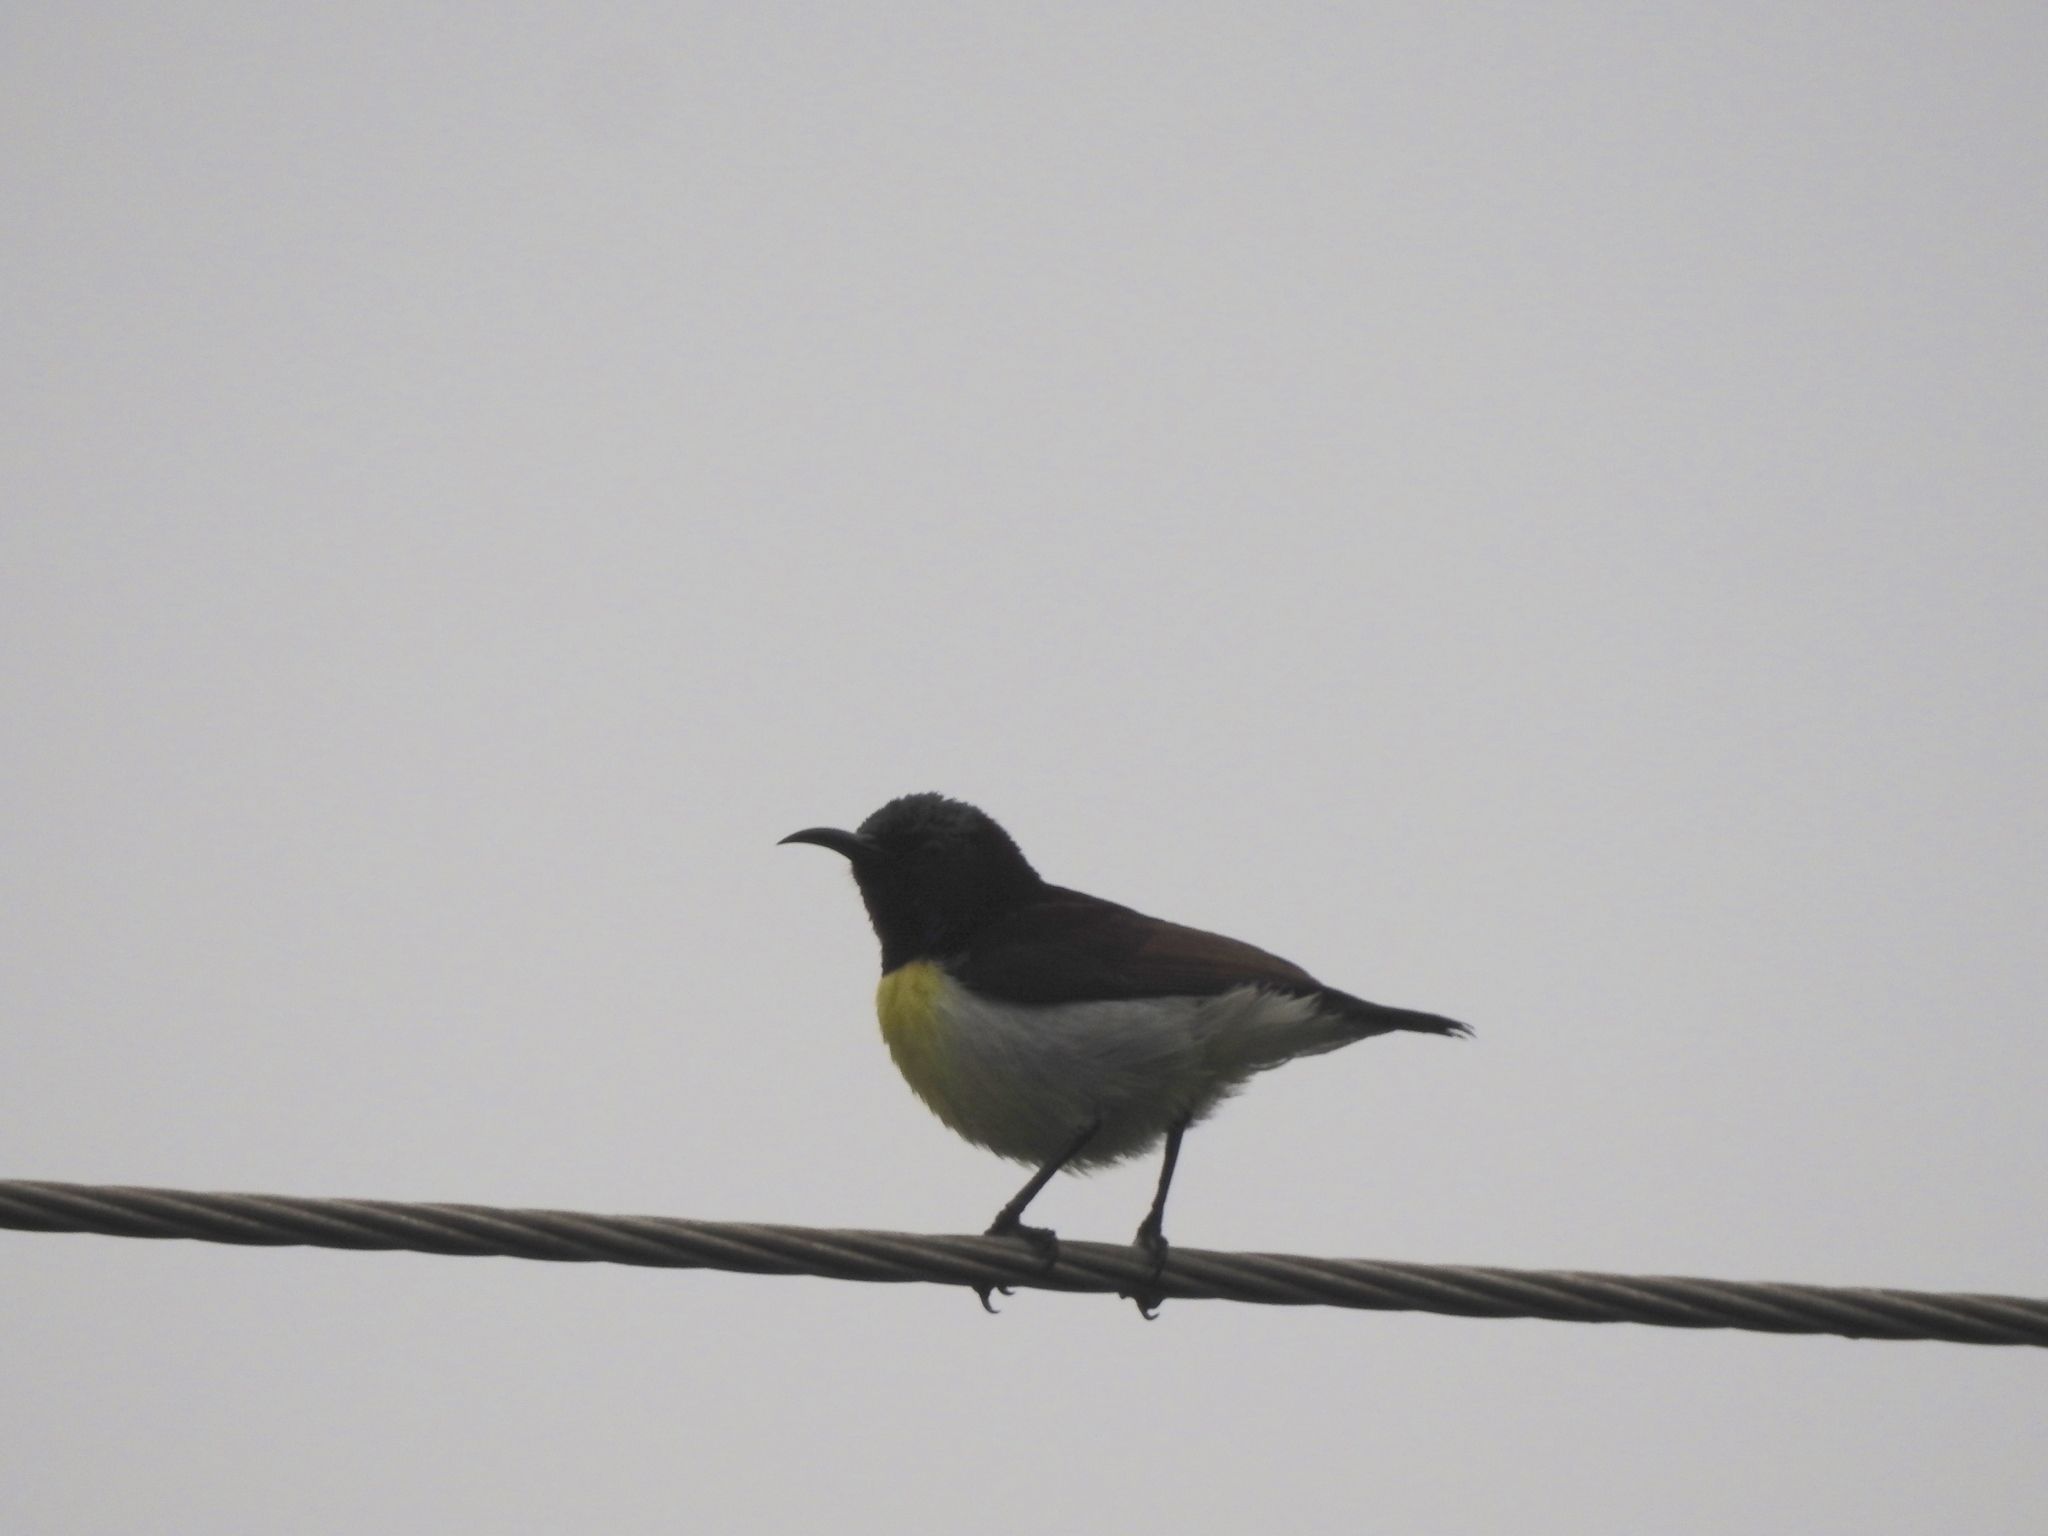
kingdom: Animalia
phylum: Chordata
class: Aves
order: Passeriformes
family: Nectariniidae
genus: Leptocoma
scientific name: Leptocoma zeylonica
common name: Purple-rumped sunbird
